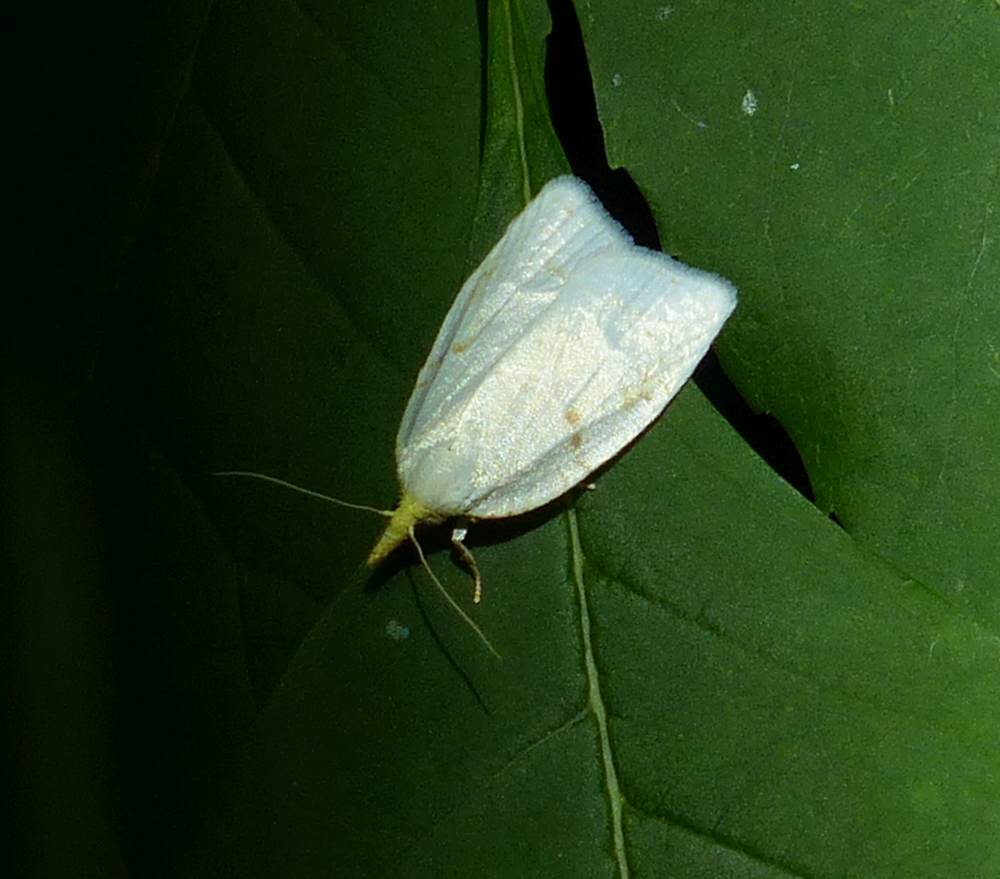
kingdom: Animalia
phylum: Arthropoda
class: Insecta
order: Lepidoptera
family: Tortricidae
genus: Cenopis
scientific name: Cenopis pettitana
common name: Maple-basswood leafroller moth
